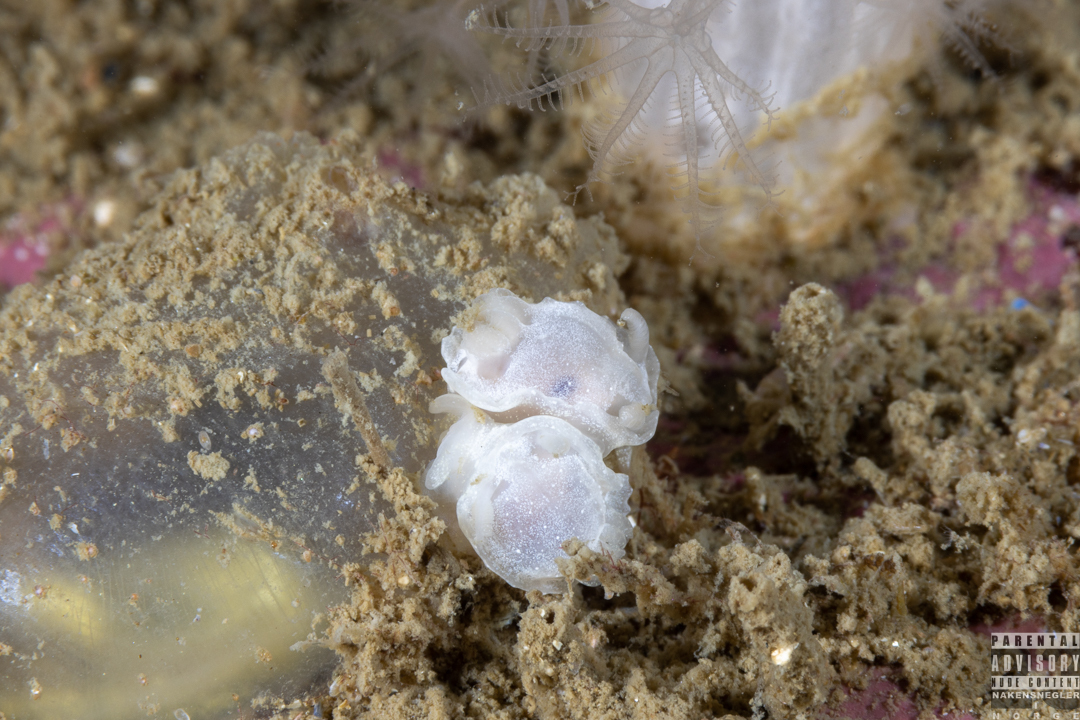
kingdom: Animalia
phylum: Mollusca
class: Gastropoda
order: Nudibranchia
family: Goniodorididae
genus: Okenia
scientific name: Okenia
